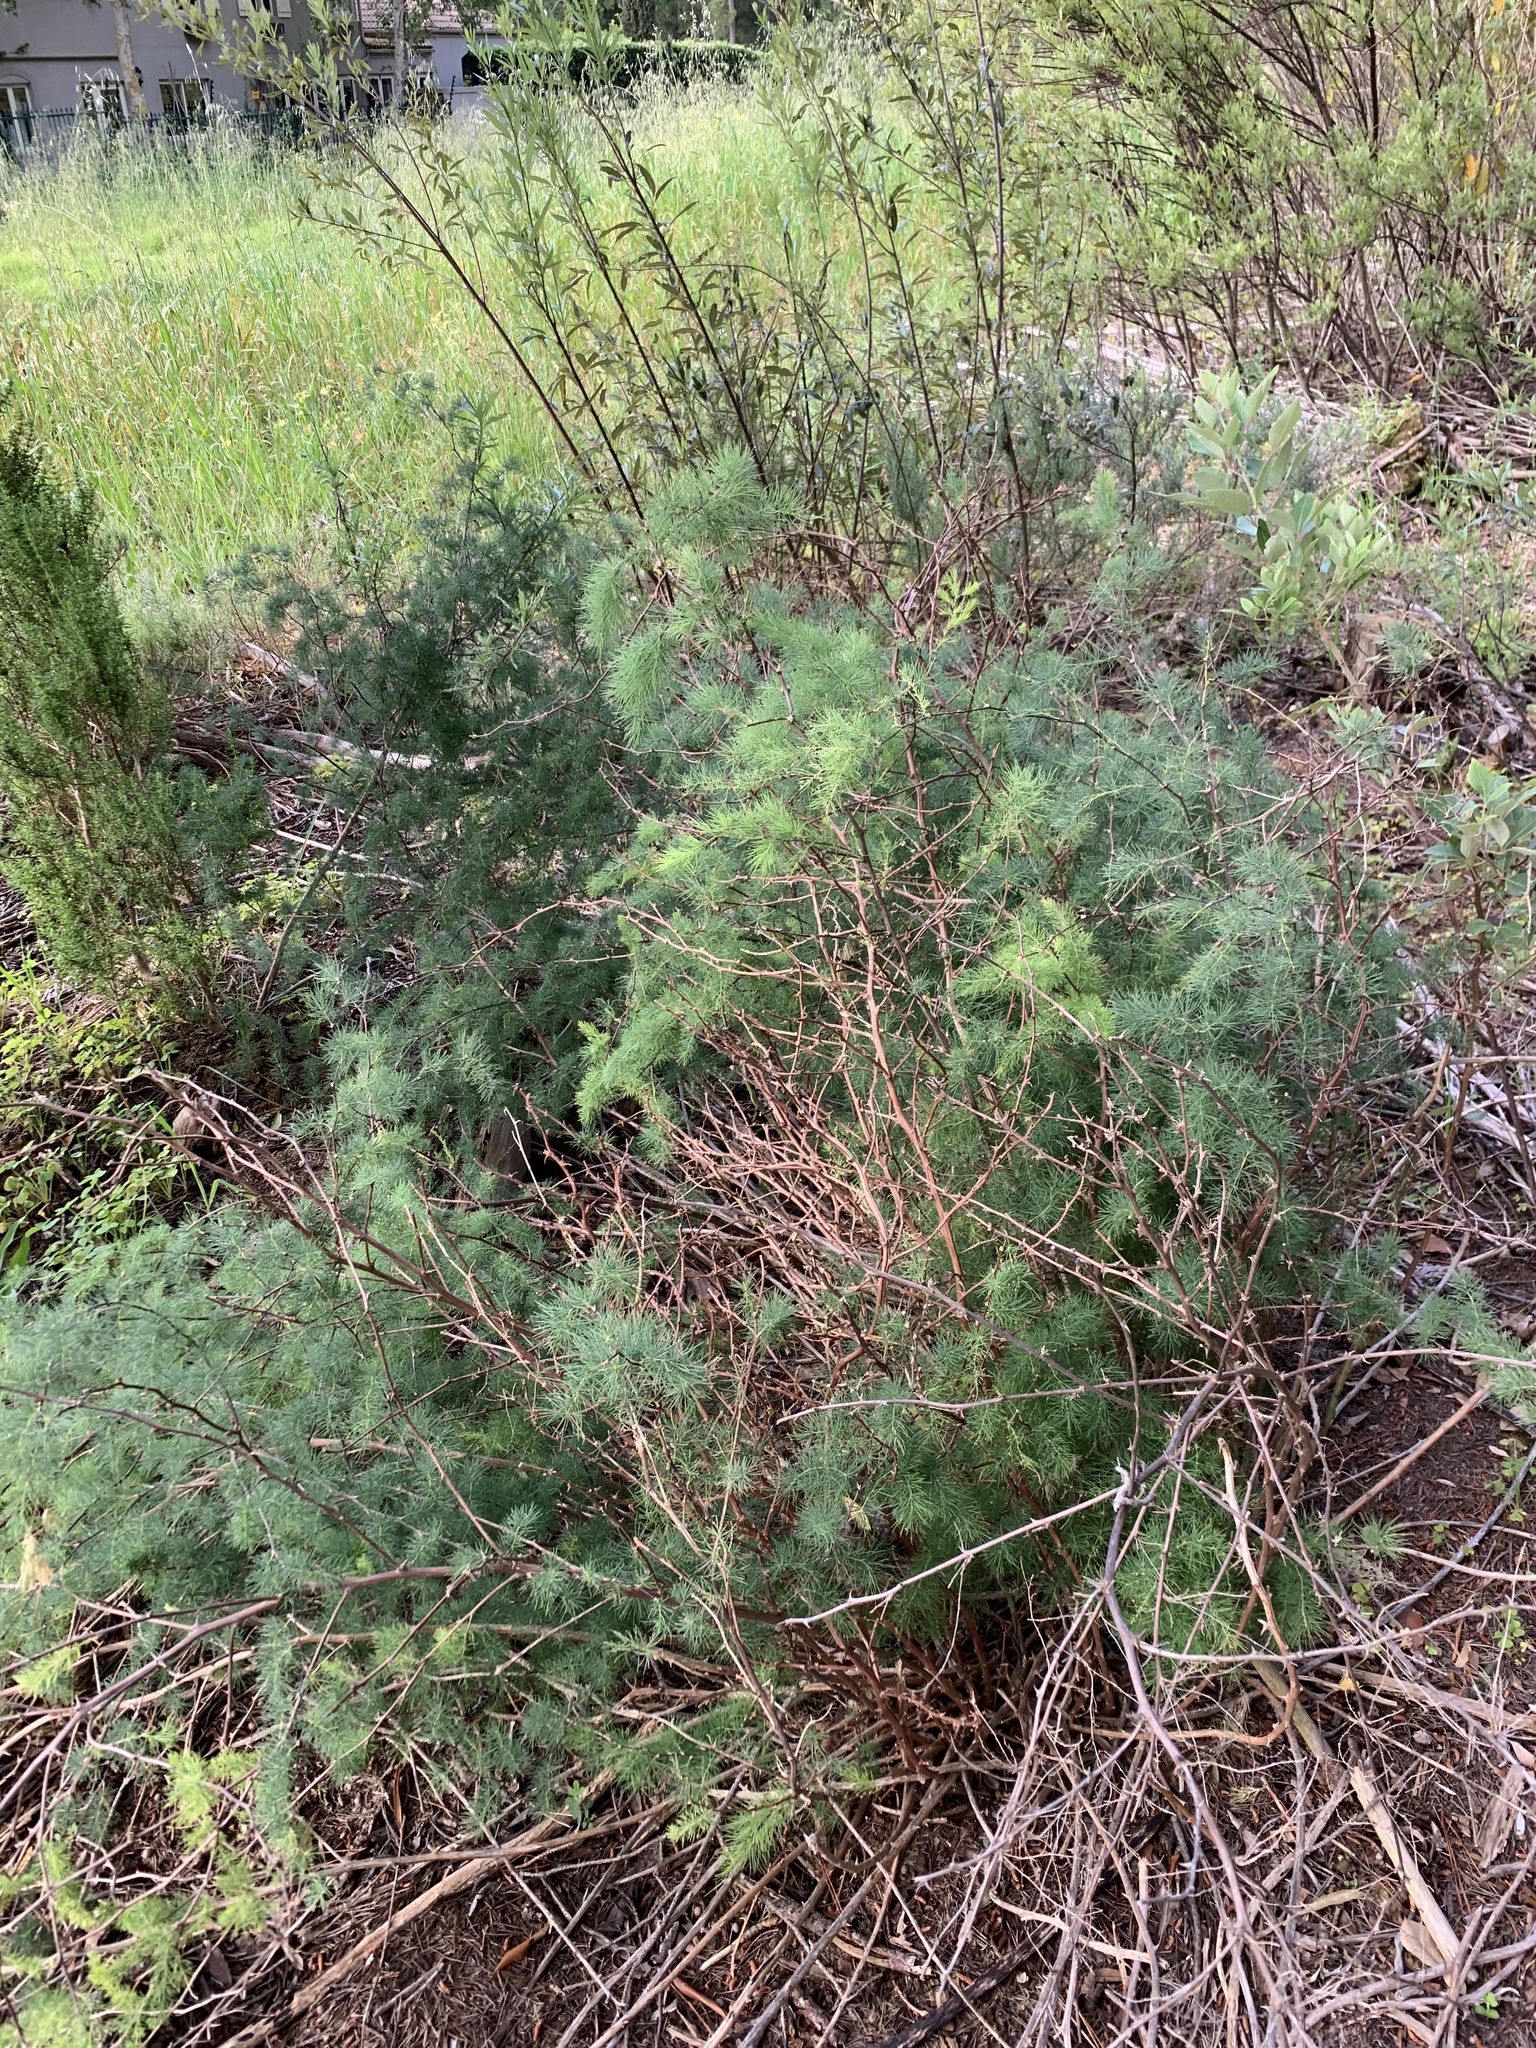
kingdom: Plantae
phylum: Tracheophyta
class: Liliopsida
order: Asparagales
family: Asparagaceae
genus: Asparagus
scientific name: Asparagus rubicundus
